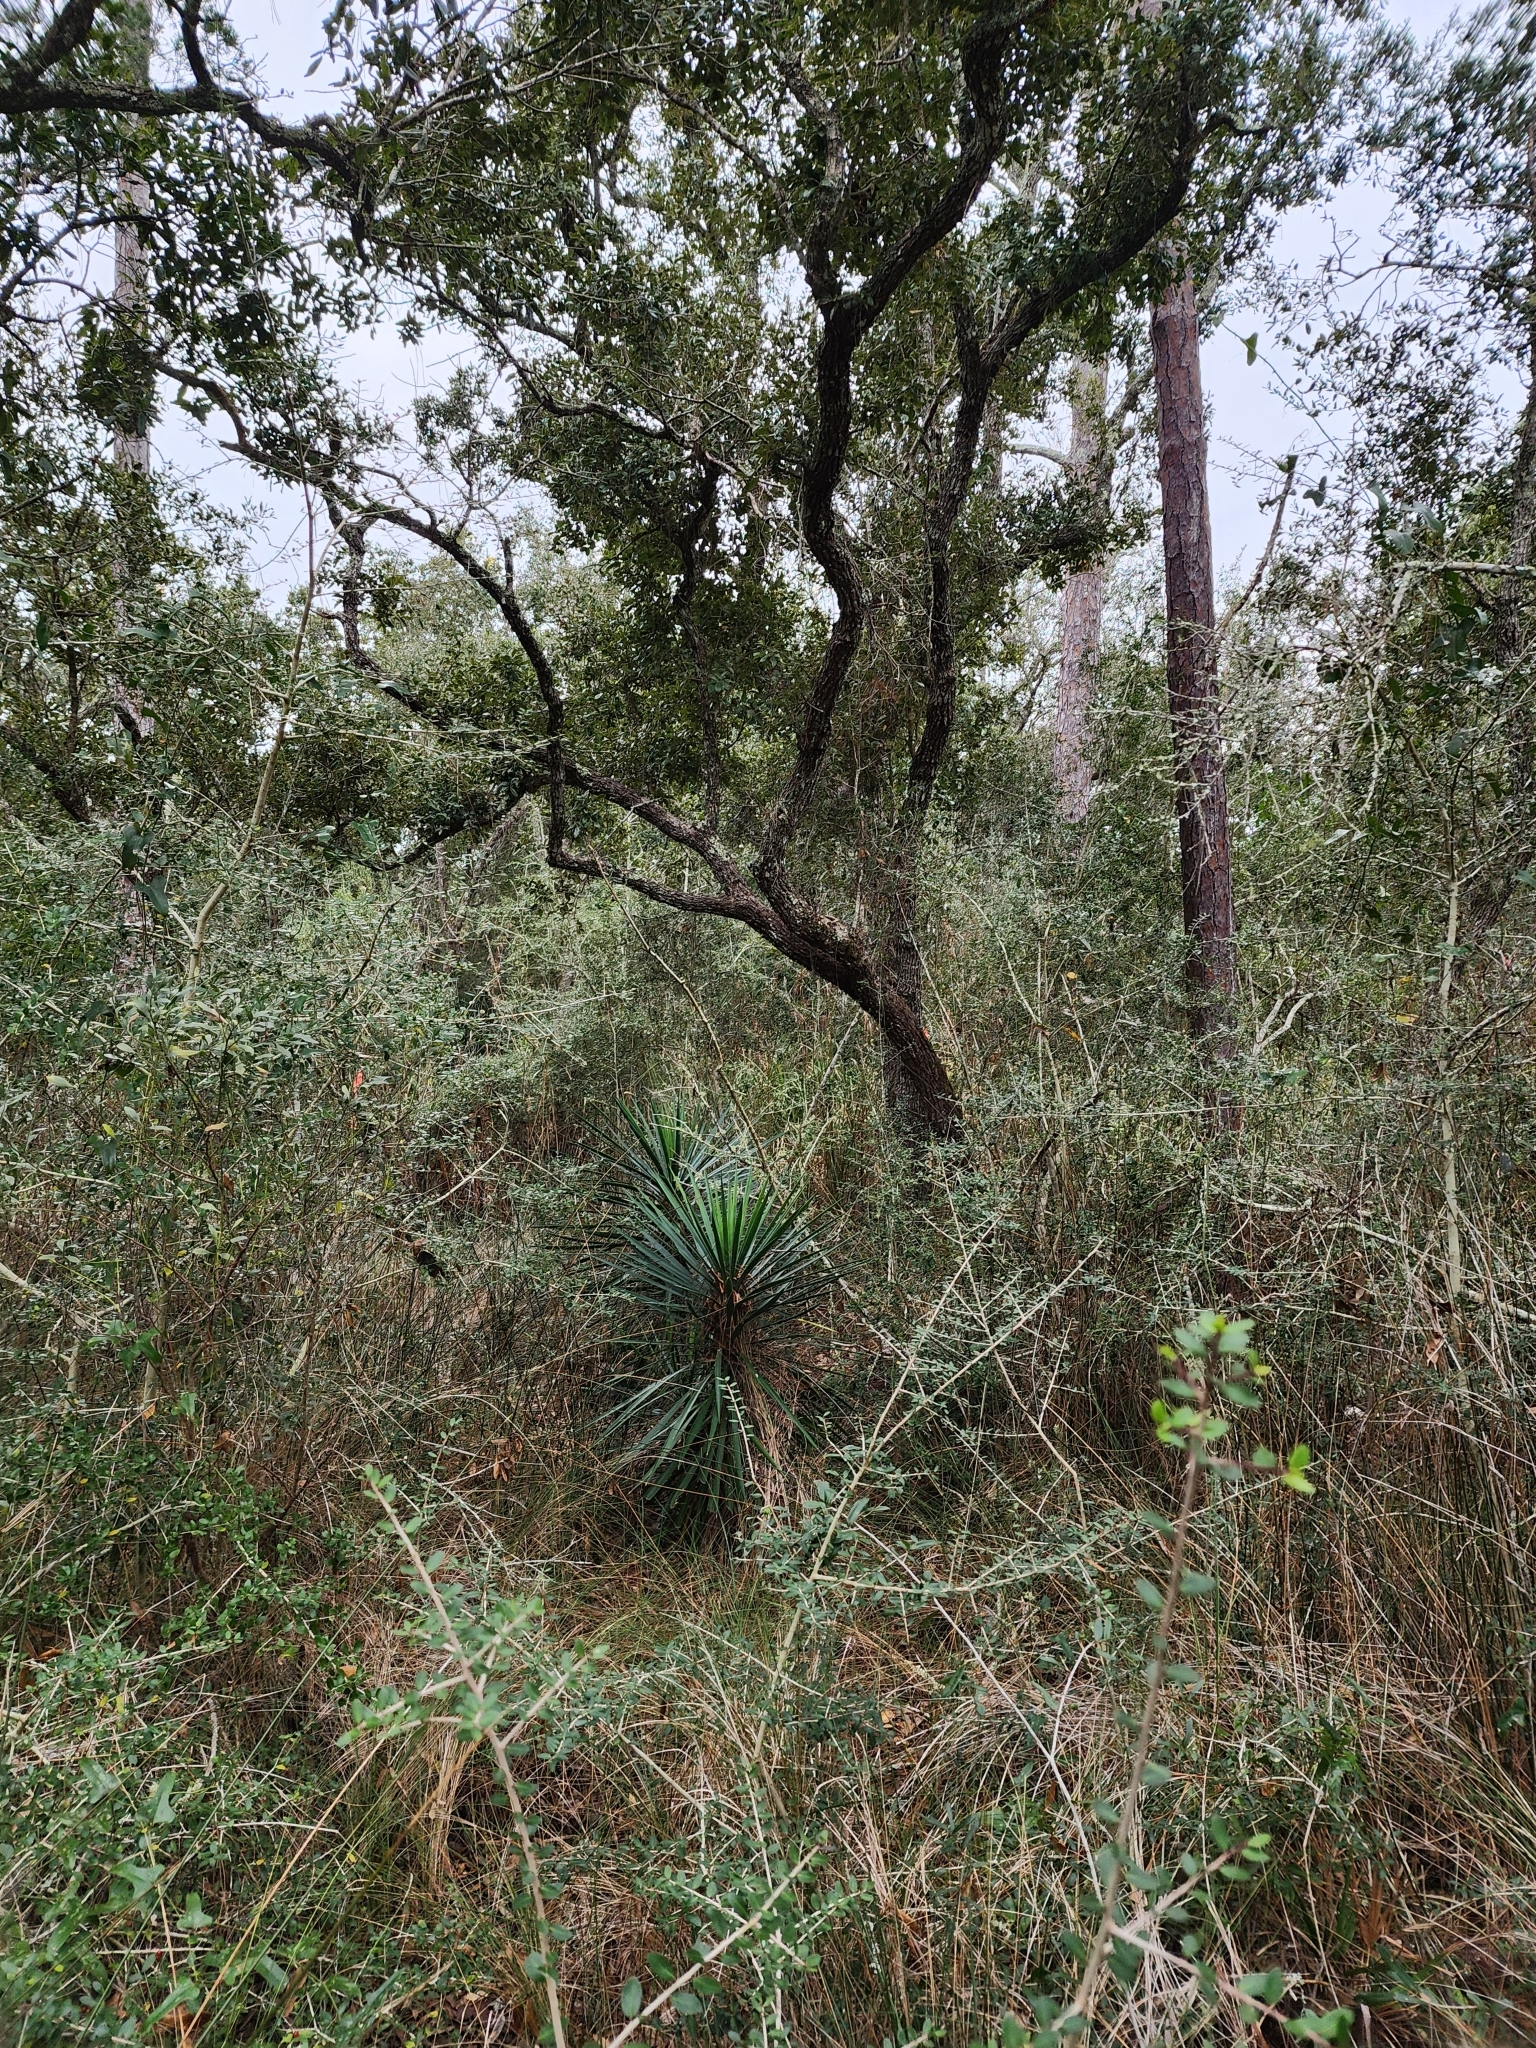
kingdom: Plantae
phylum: Tracheophyta
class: Liliopsida
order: Asparagales
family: Asparagaceae
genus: Yucca
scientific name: Yucca aloifolia
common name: Aloe yucca
